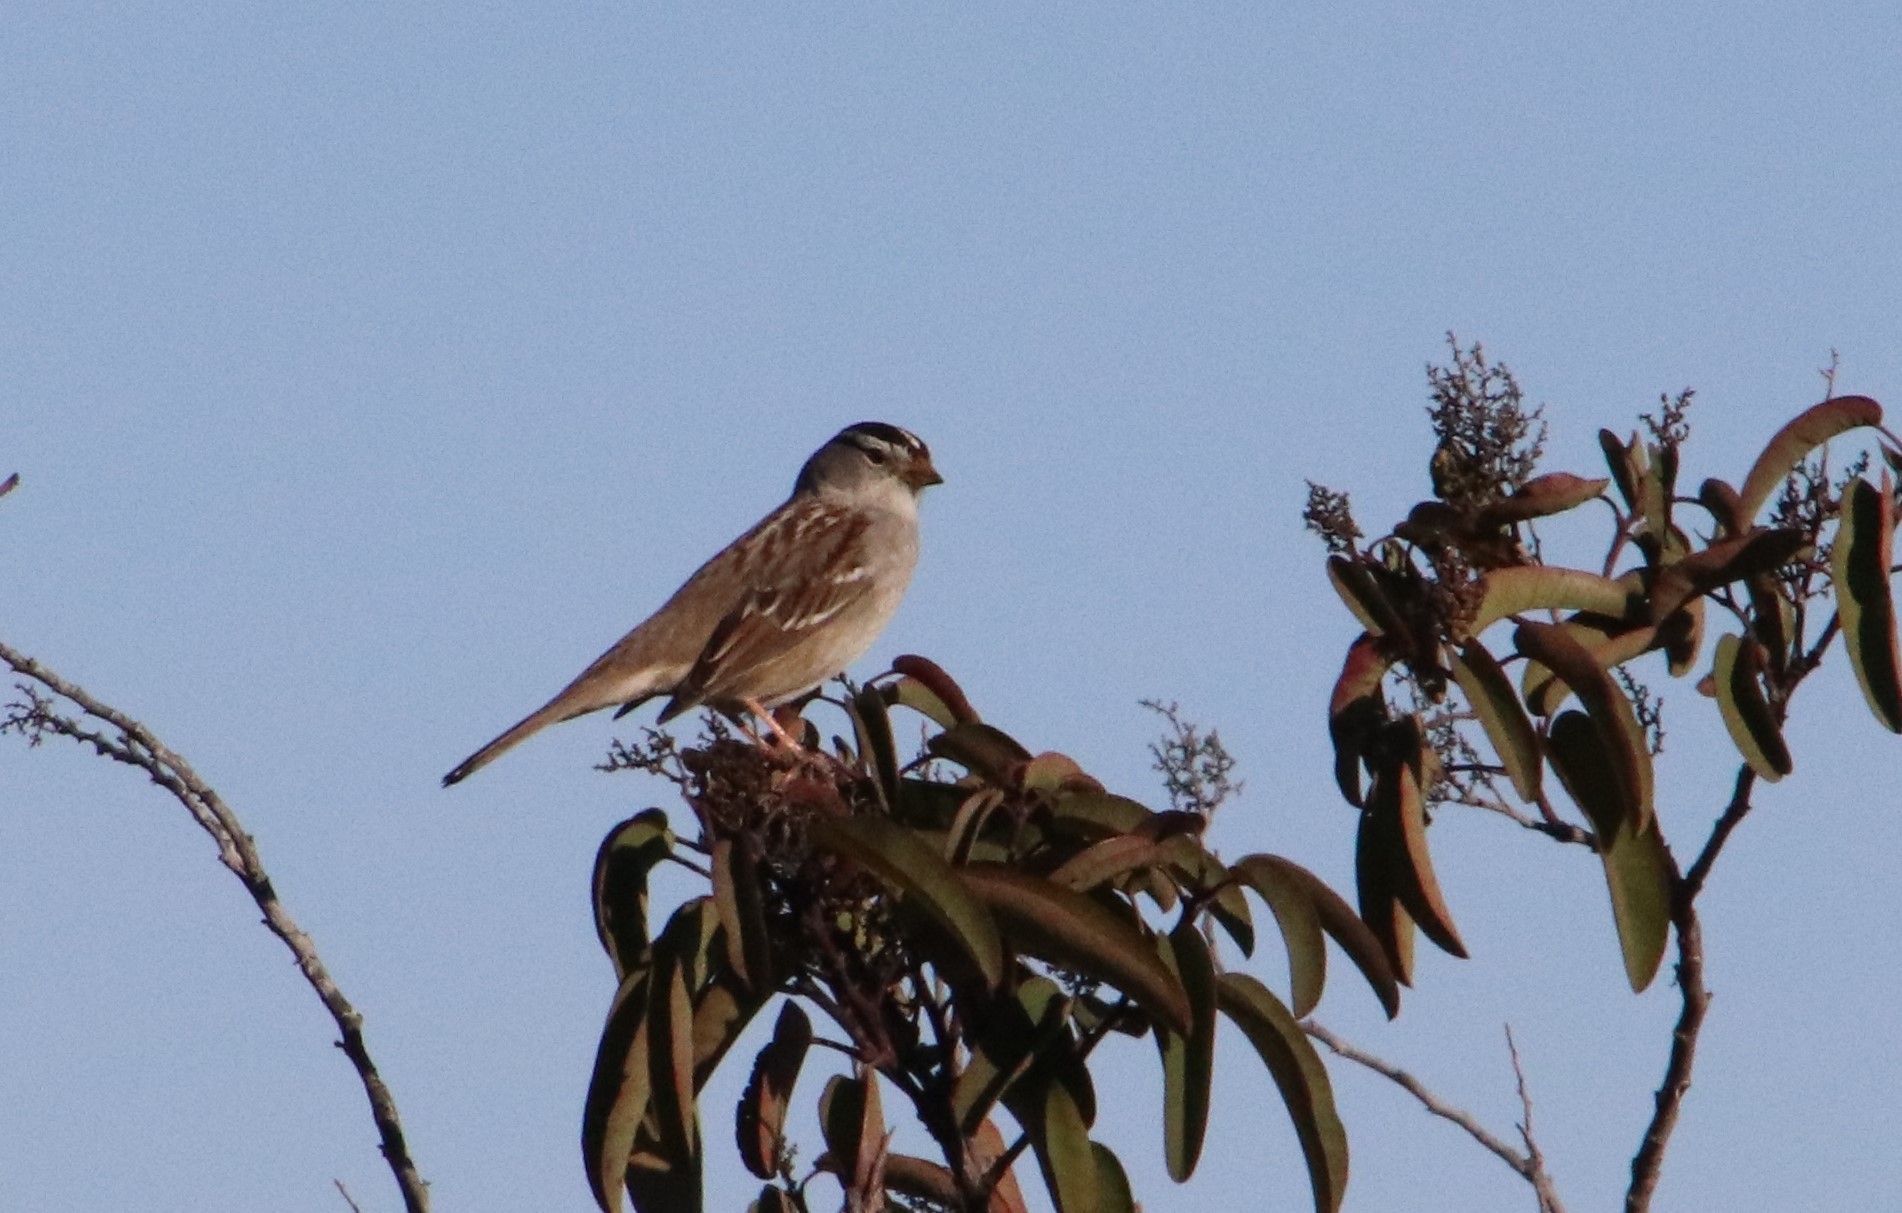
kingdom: Animalia
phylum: Chordata
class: Aves
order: Passeriformes
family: Passerellidae
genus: Zonotrichia
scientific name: Zonotrichia leucophrys
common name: White-crowned sparrow
